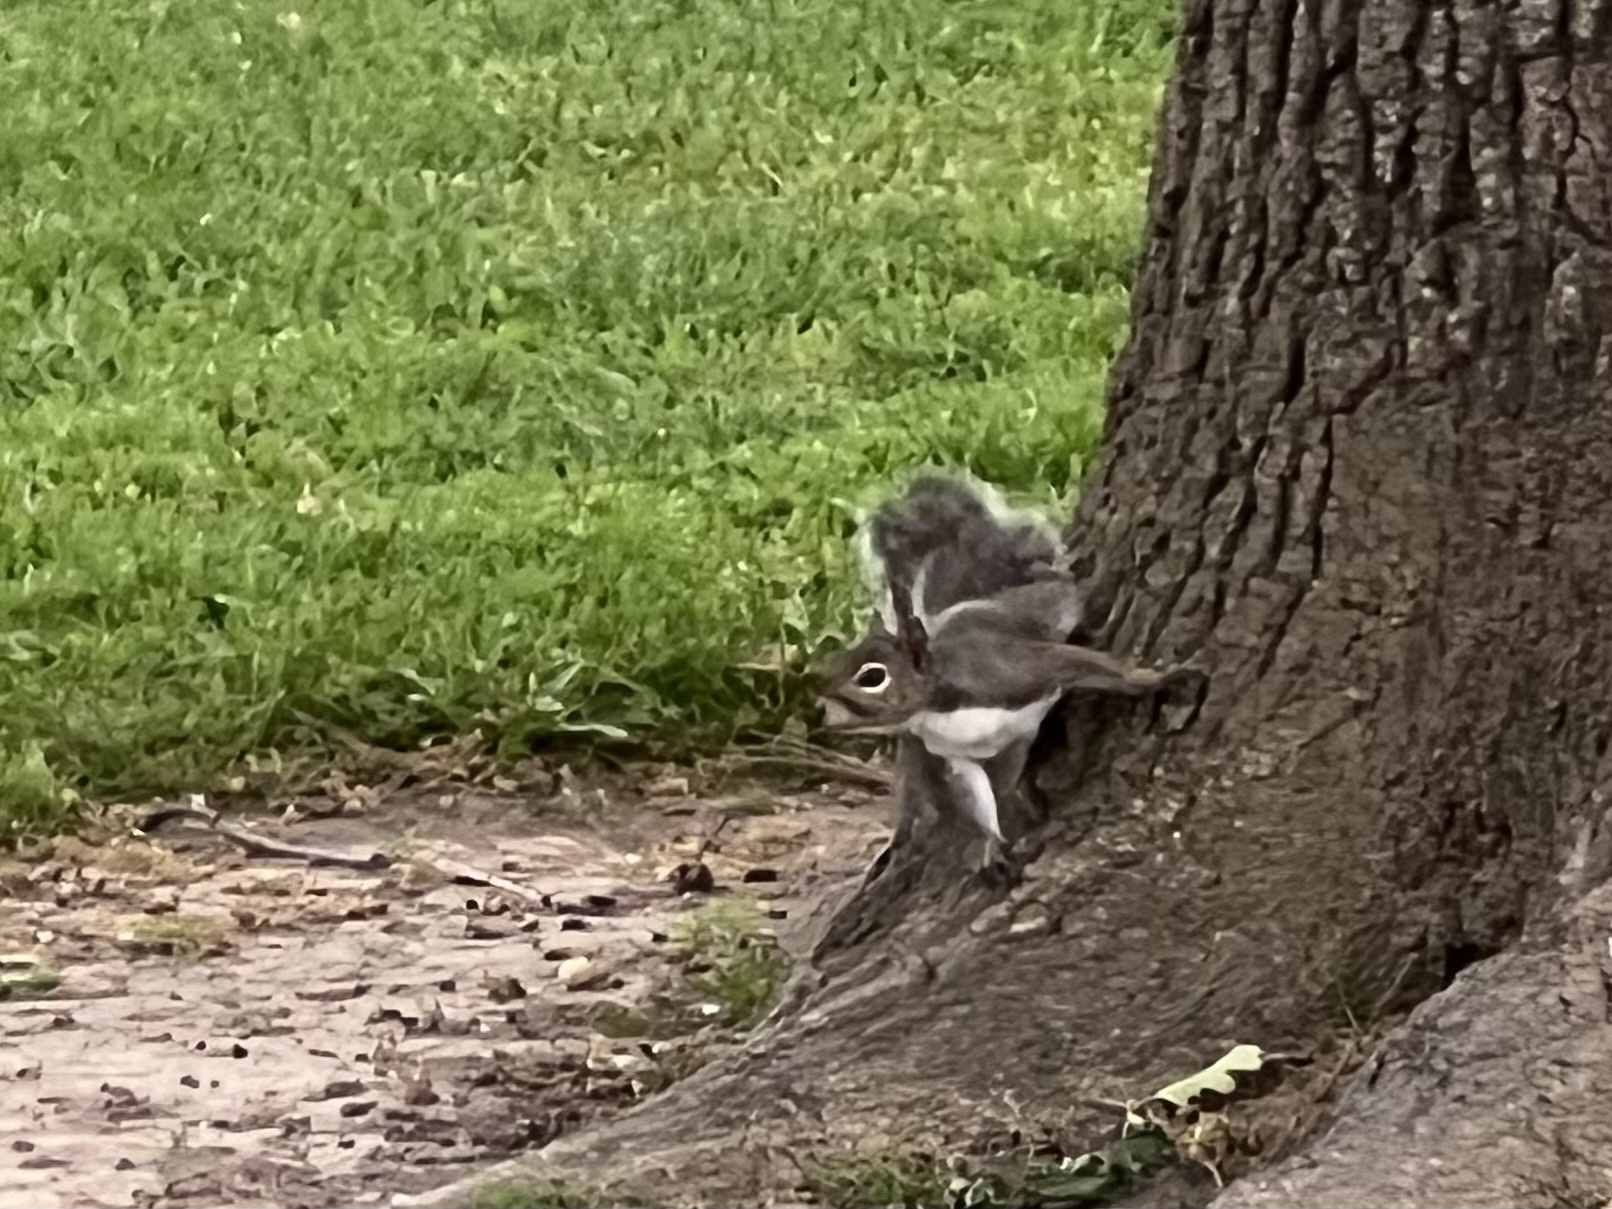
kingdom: Animalia
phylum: Chordata
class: Mammalia
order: Rodentia
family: Sciuridae
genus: Sciurus
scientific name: Sciurus carolinensis
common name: Eastern gray squirrel
